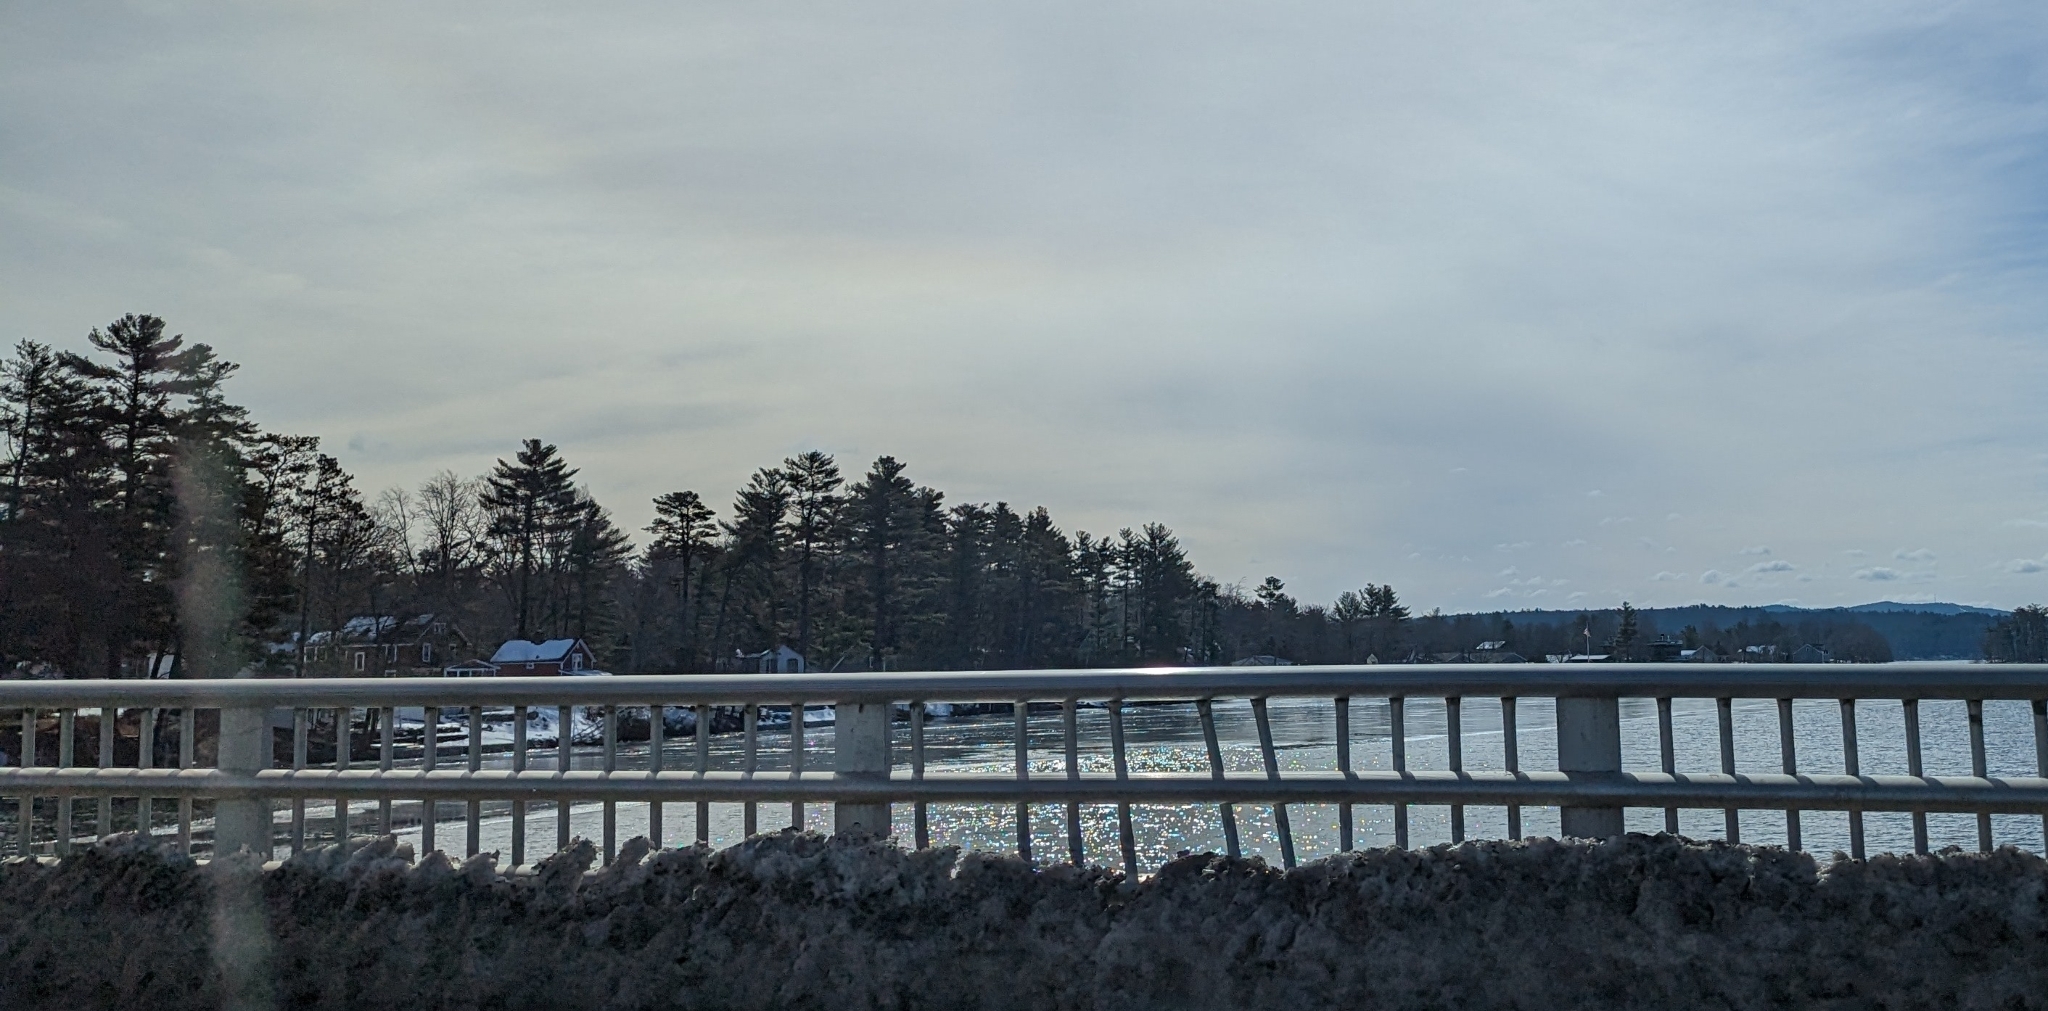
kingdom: Plantae
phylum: Tracheophyta
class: Pinopsida
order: Pinales
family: Pinaceae
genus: Pinus
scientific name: Pinus strobus
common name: Weymouth pine
